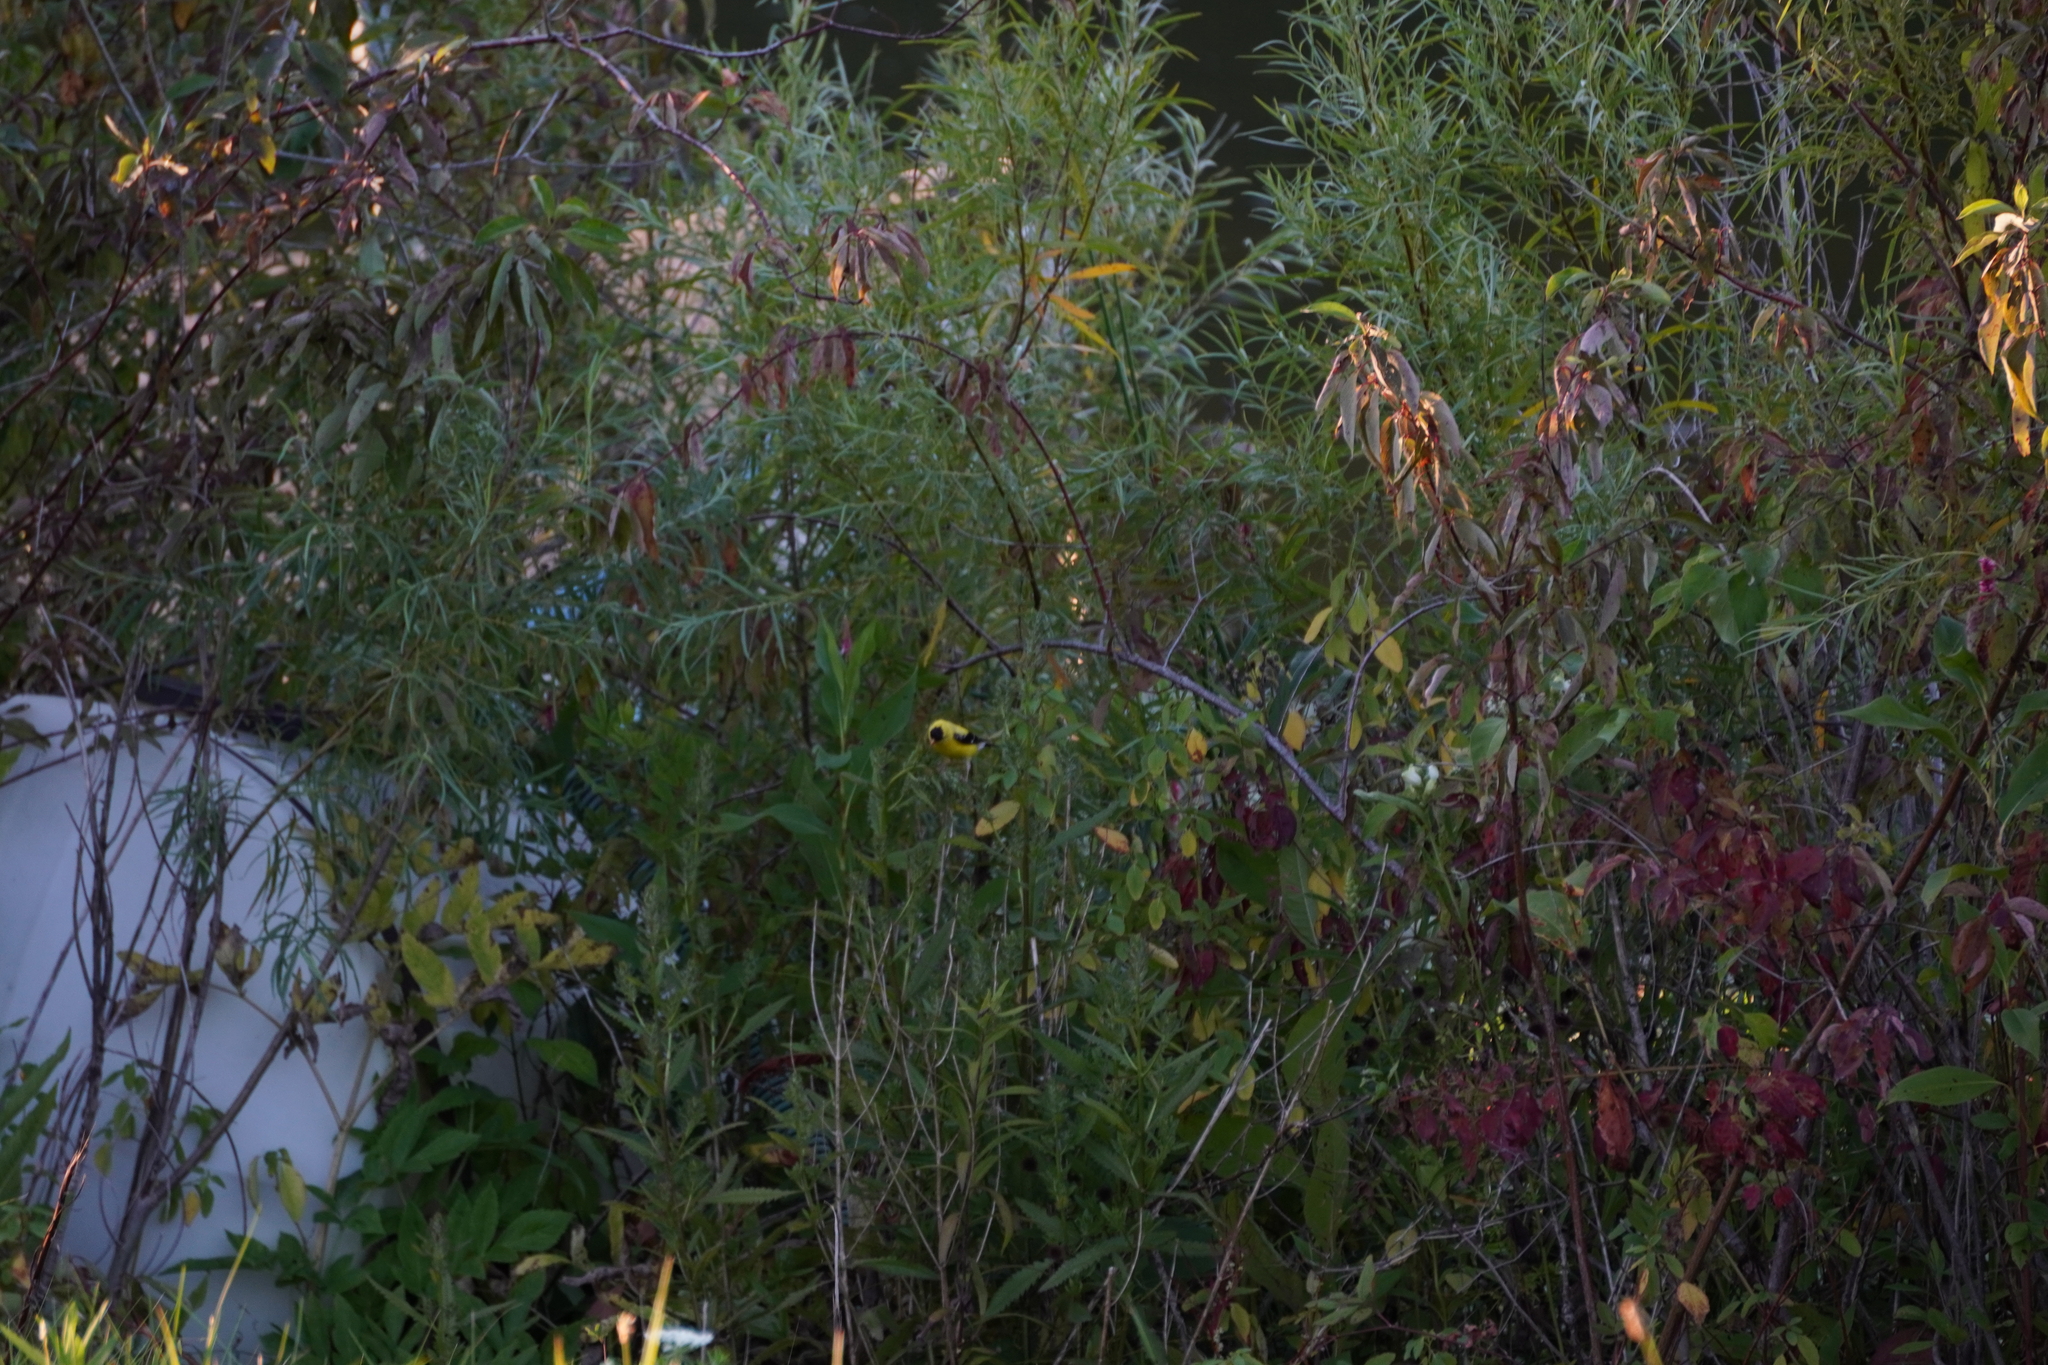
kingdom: Animalia
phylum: Chordata
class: Aves
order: Passeriformes
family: Fringillidae
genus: Spinus
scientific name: Spinus tristis
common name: American goldfinch
